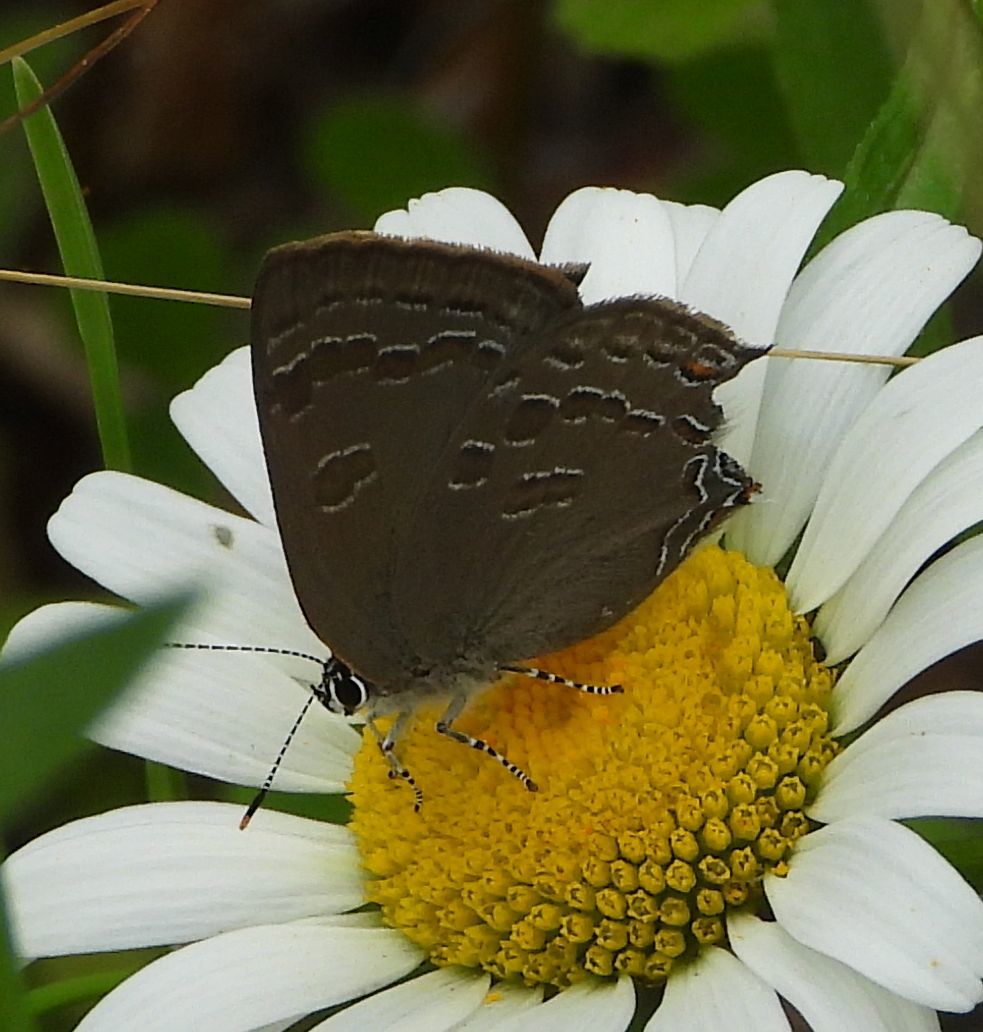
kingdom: Animalia
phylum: Arthropoda
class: Insecta
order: Lepidoptera
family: Lycaenidae
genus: Strymon
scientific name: Strymon caryaevorus
